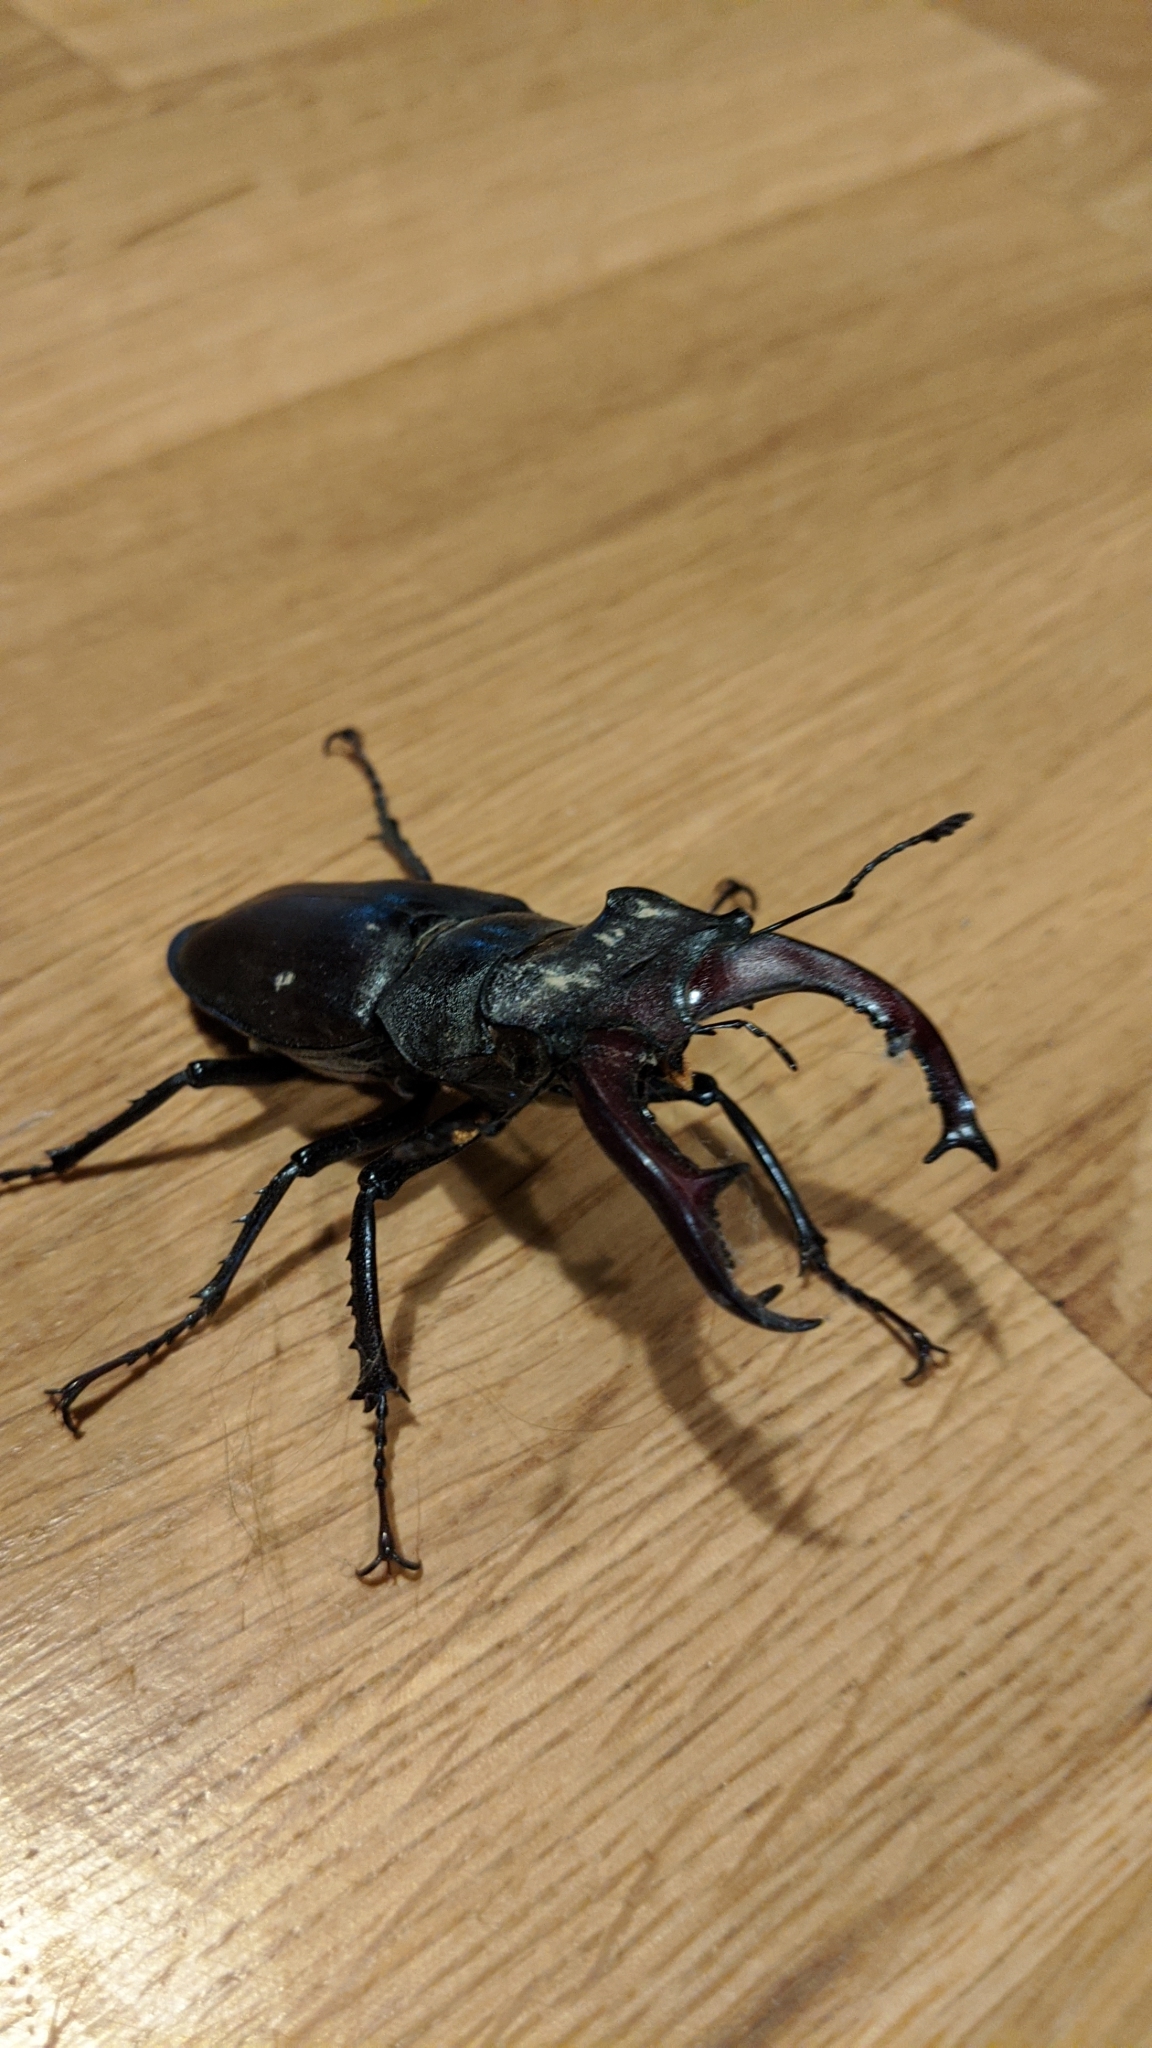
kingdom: Animalia
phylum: Arthropoda
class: Insecta
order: Coleoptera
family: Lucanidae
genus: Lucanus
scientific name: Lucanus cervus
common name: Stag beetle
